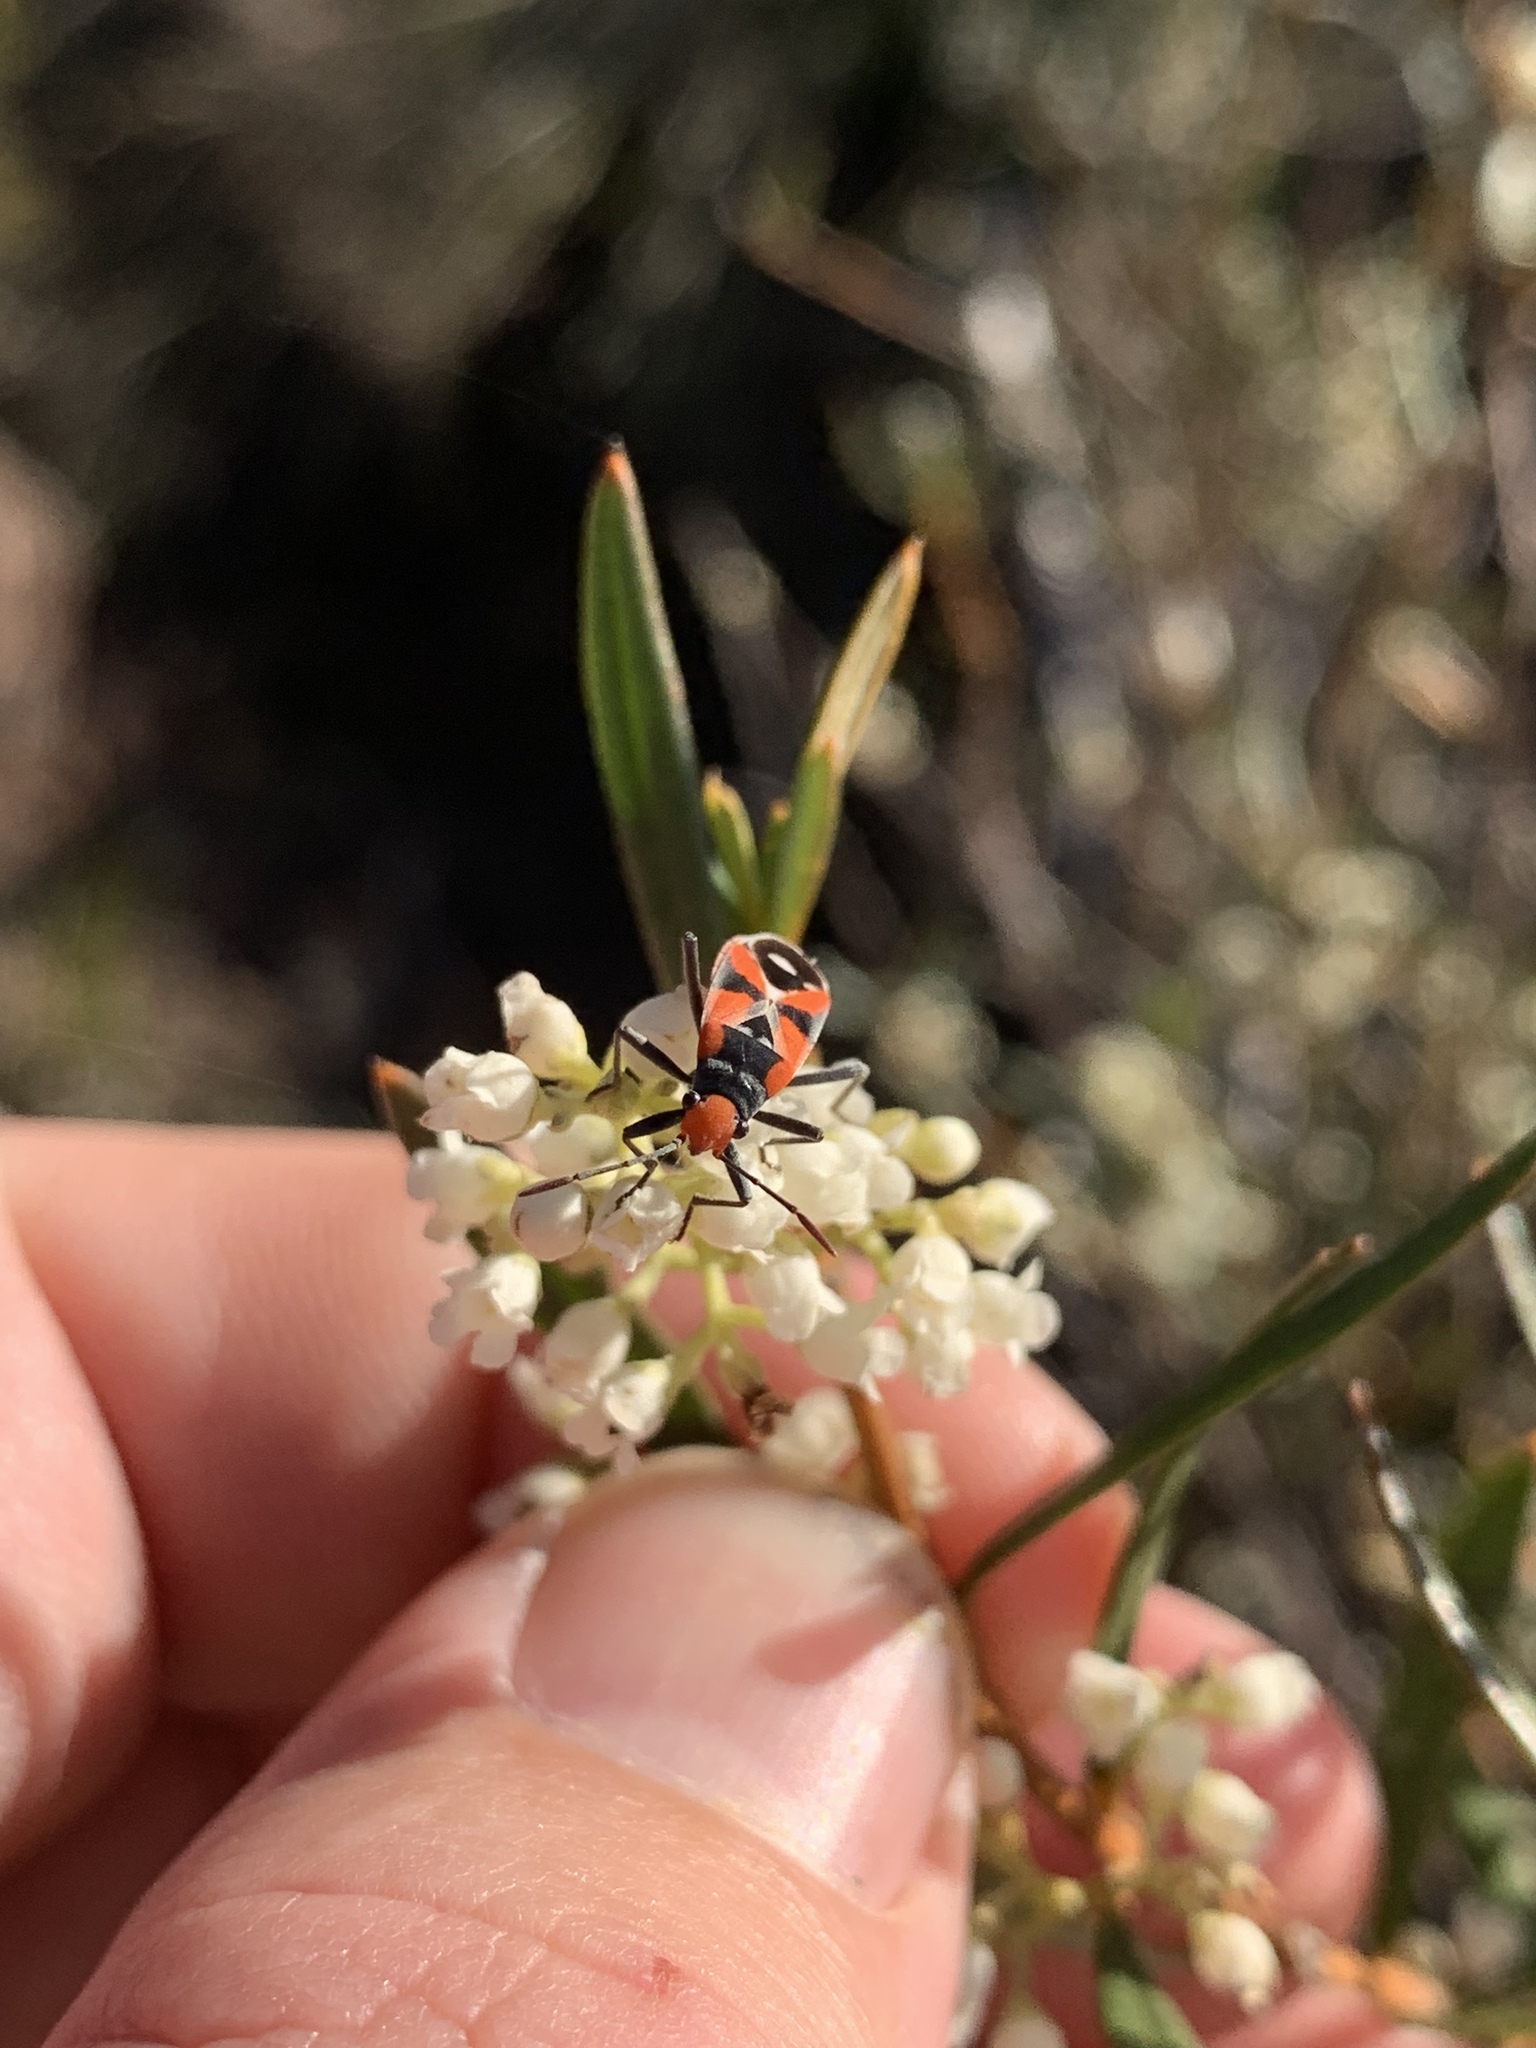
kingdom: Animalia
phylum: Arthropoda
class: Insecta
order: Hemiptera
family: Lygaeidae
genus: Melanerythrus
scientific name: Melanerythrus mactans
